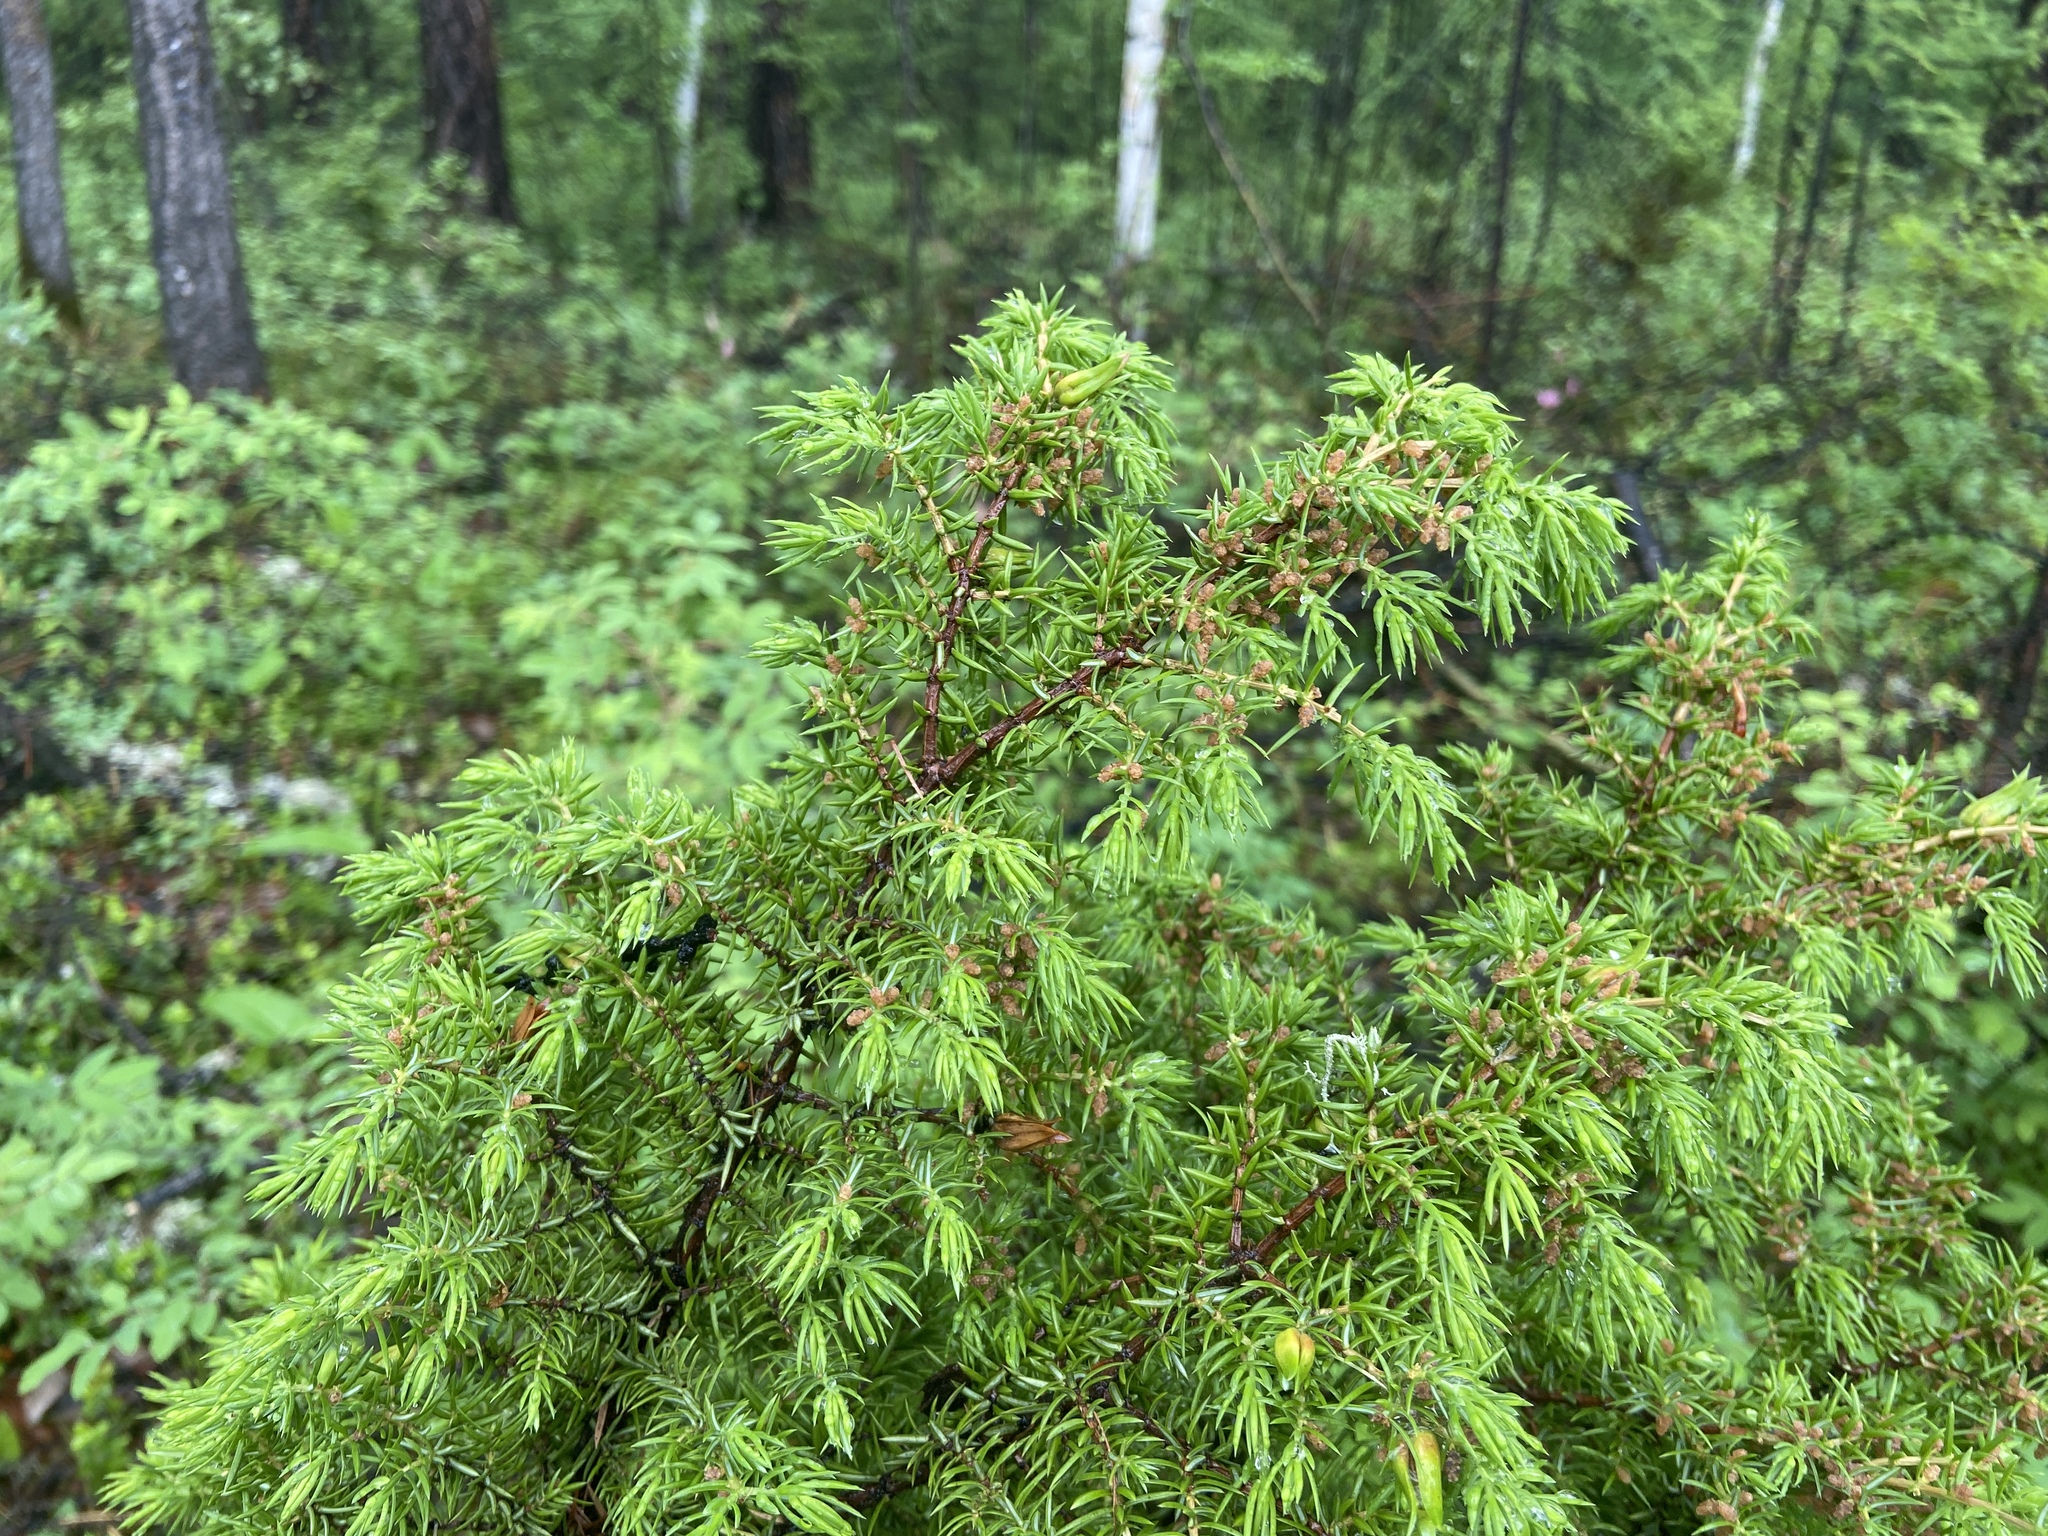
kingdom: Plantae
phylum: Tracheophyta
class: Pinopsida
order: Pinales
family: Cupressaceae
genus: Juniperus
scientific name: Juniperus communis
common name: Common juniper
